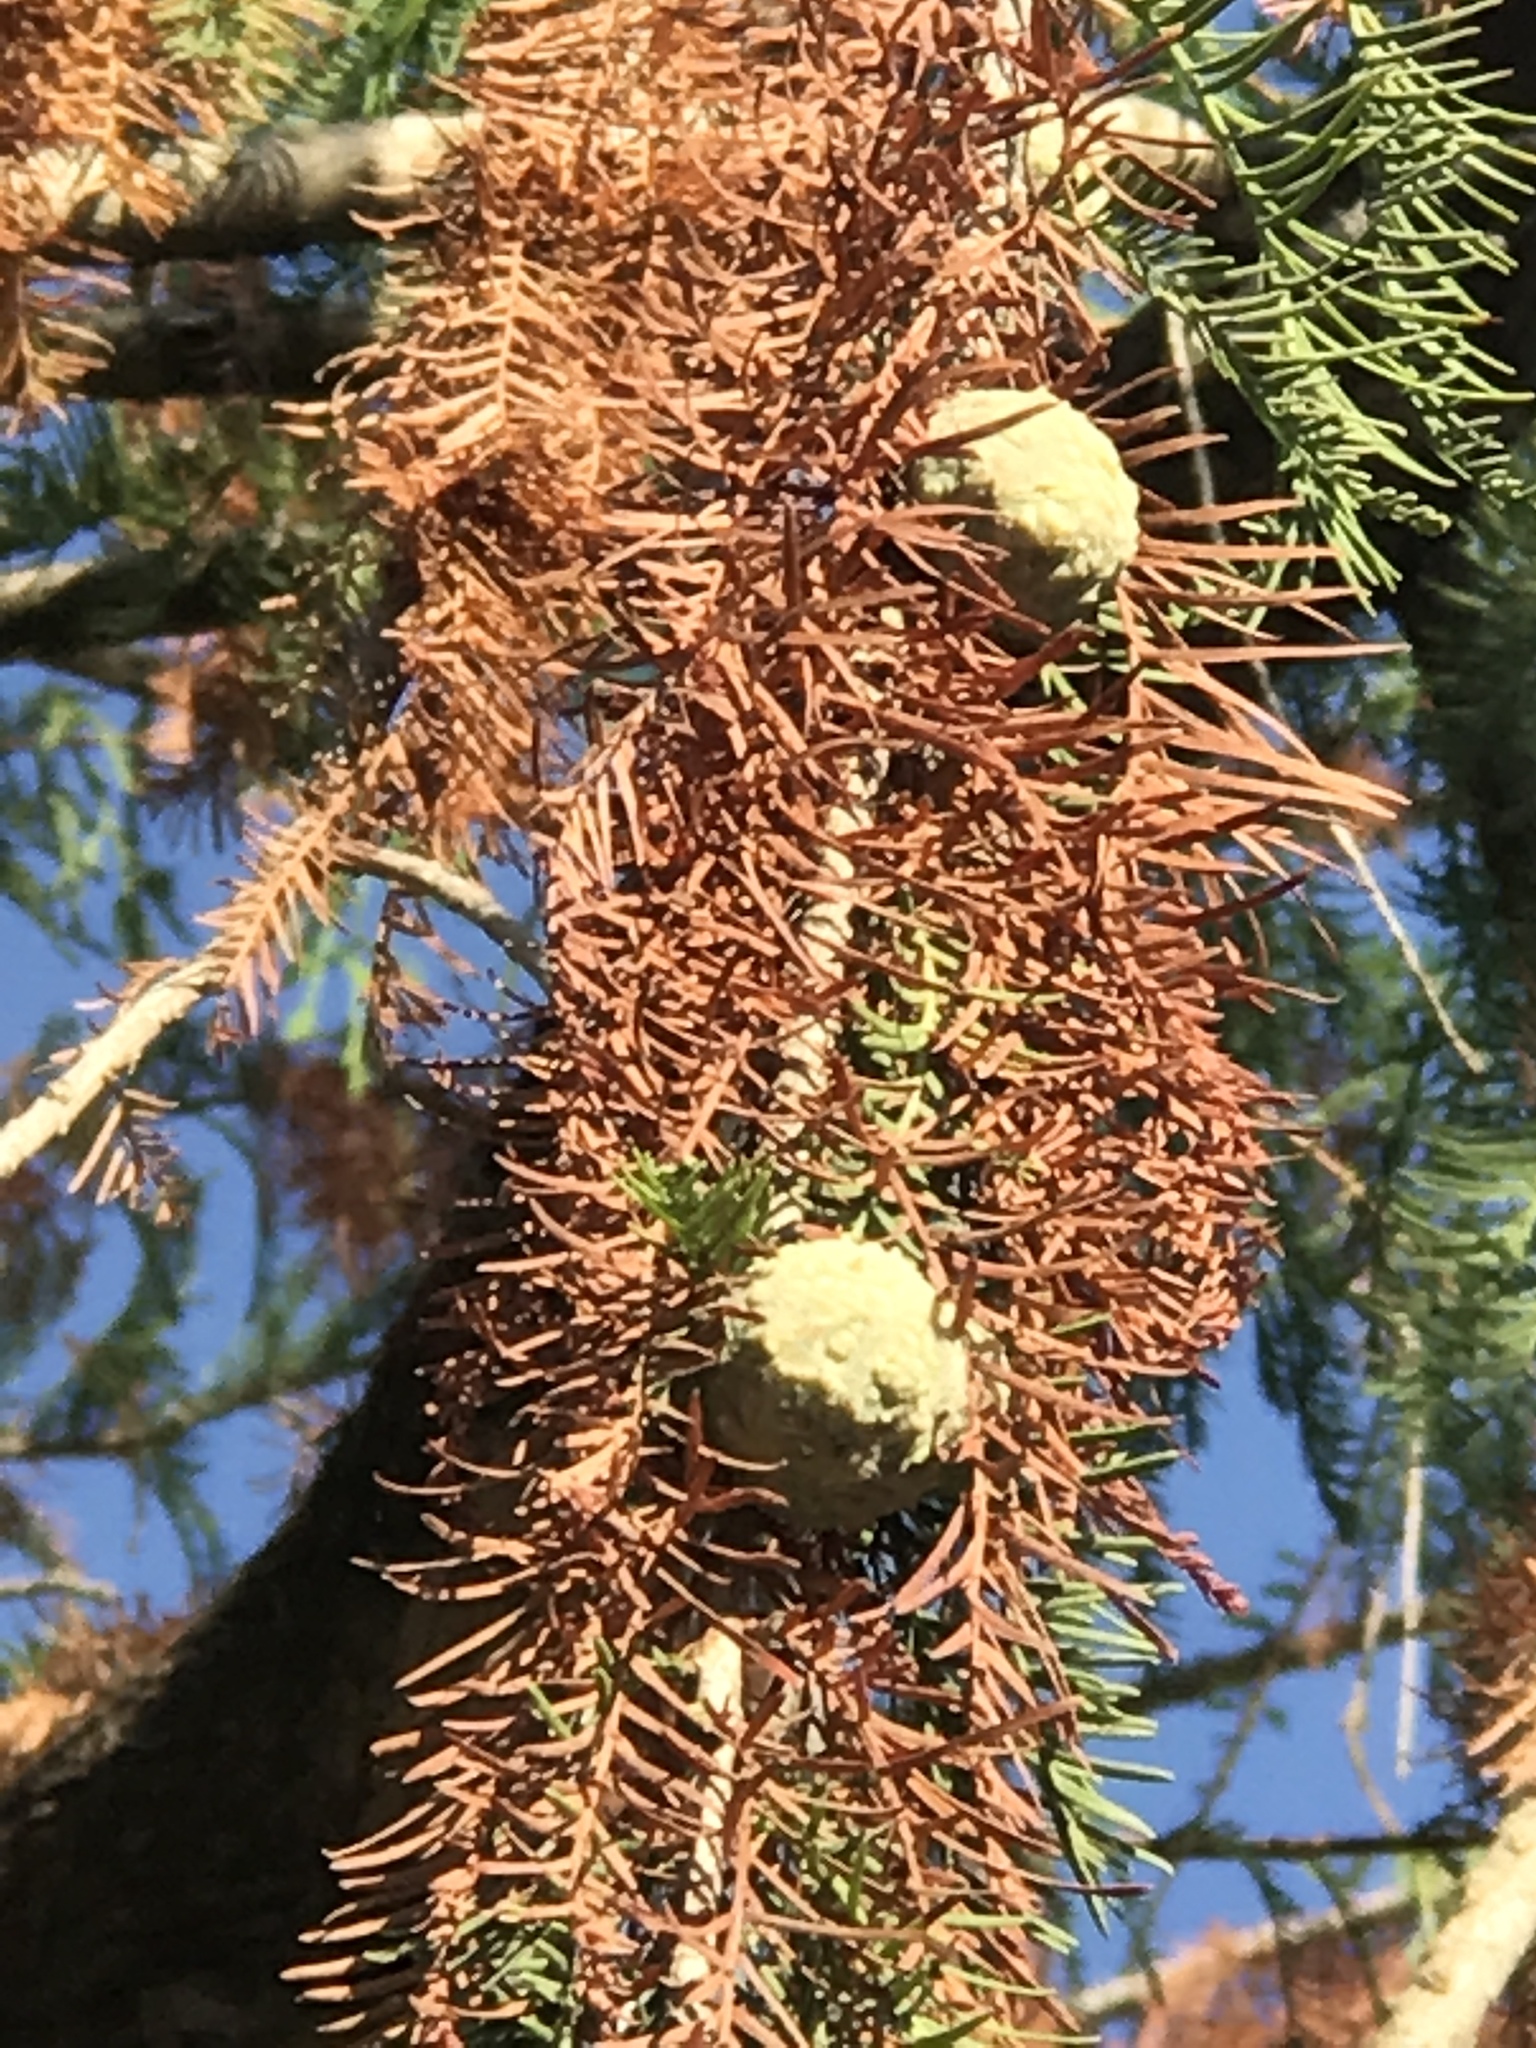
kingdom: Plantae
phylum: Tracheophyta
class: Pinopsida
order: Pinales
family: Cupressaceae
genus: Taxodium
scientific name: Taxodium distichum
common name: Bald cypress
